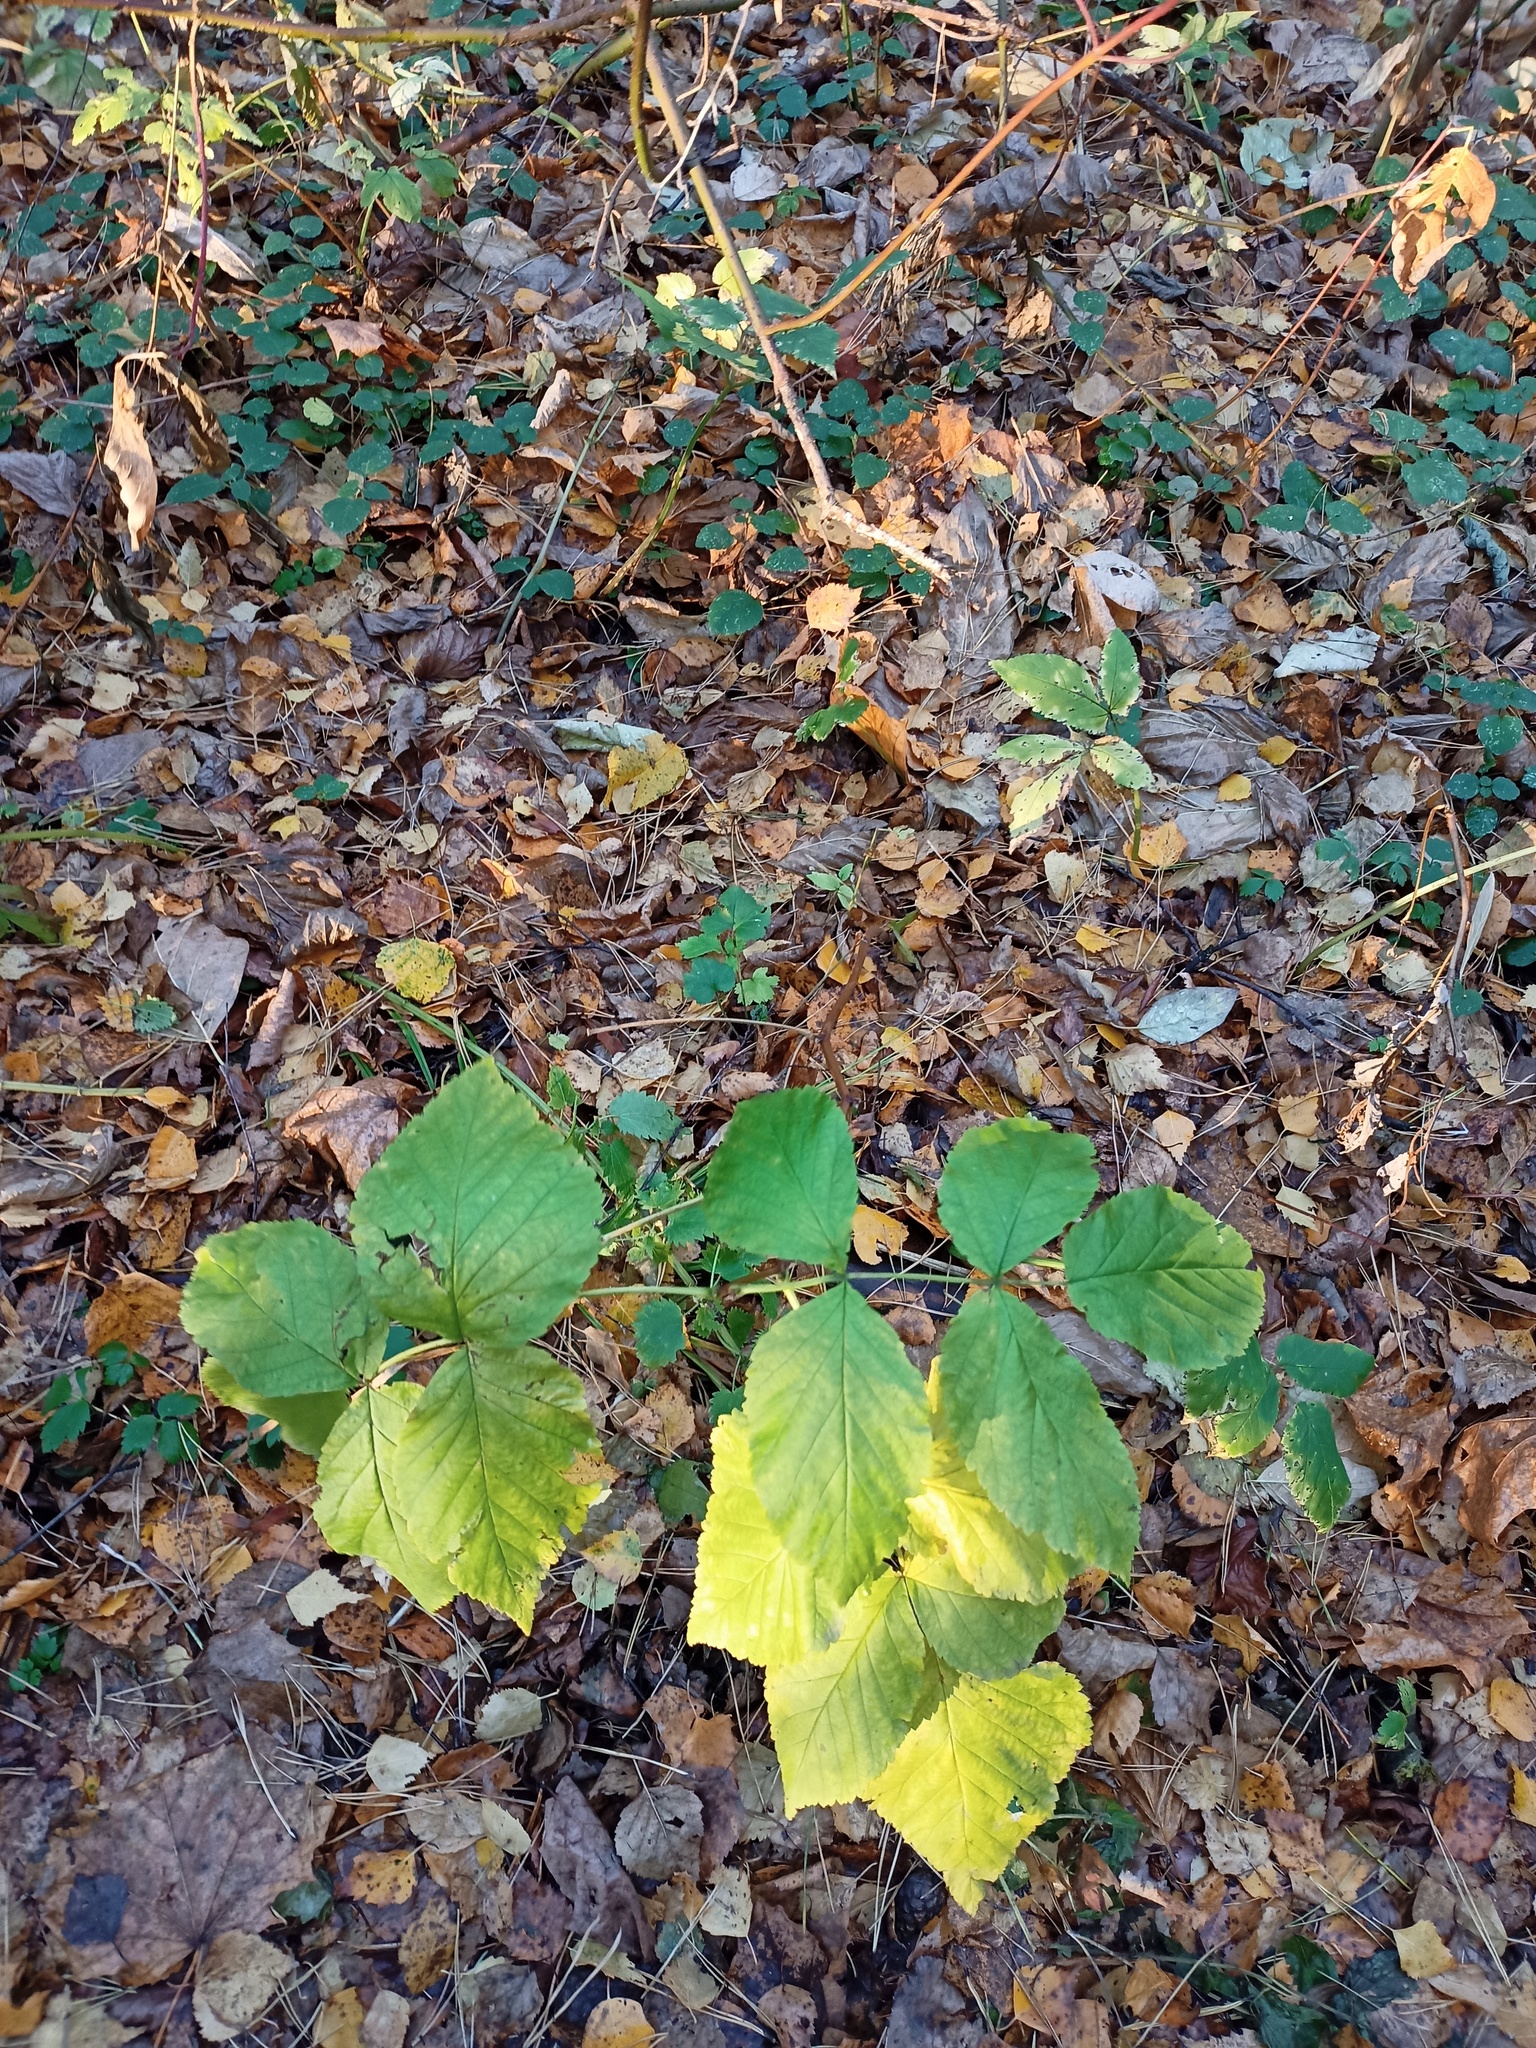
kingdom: Plantae
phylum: Tracheophyta
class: Magnoliopsida
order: Rosales
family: Rosaceae
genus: Rubus
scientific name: Rubus idaeus
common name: Raspberry
